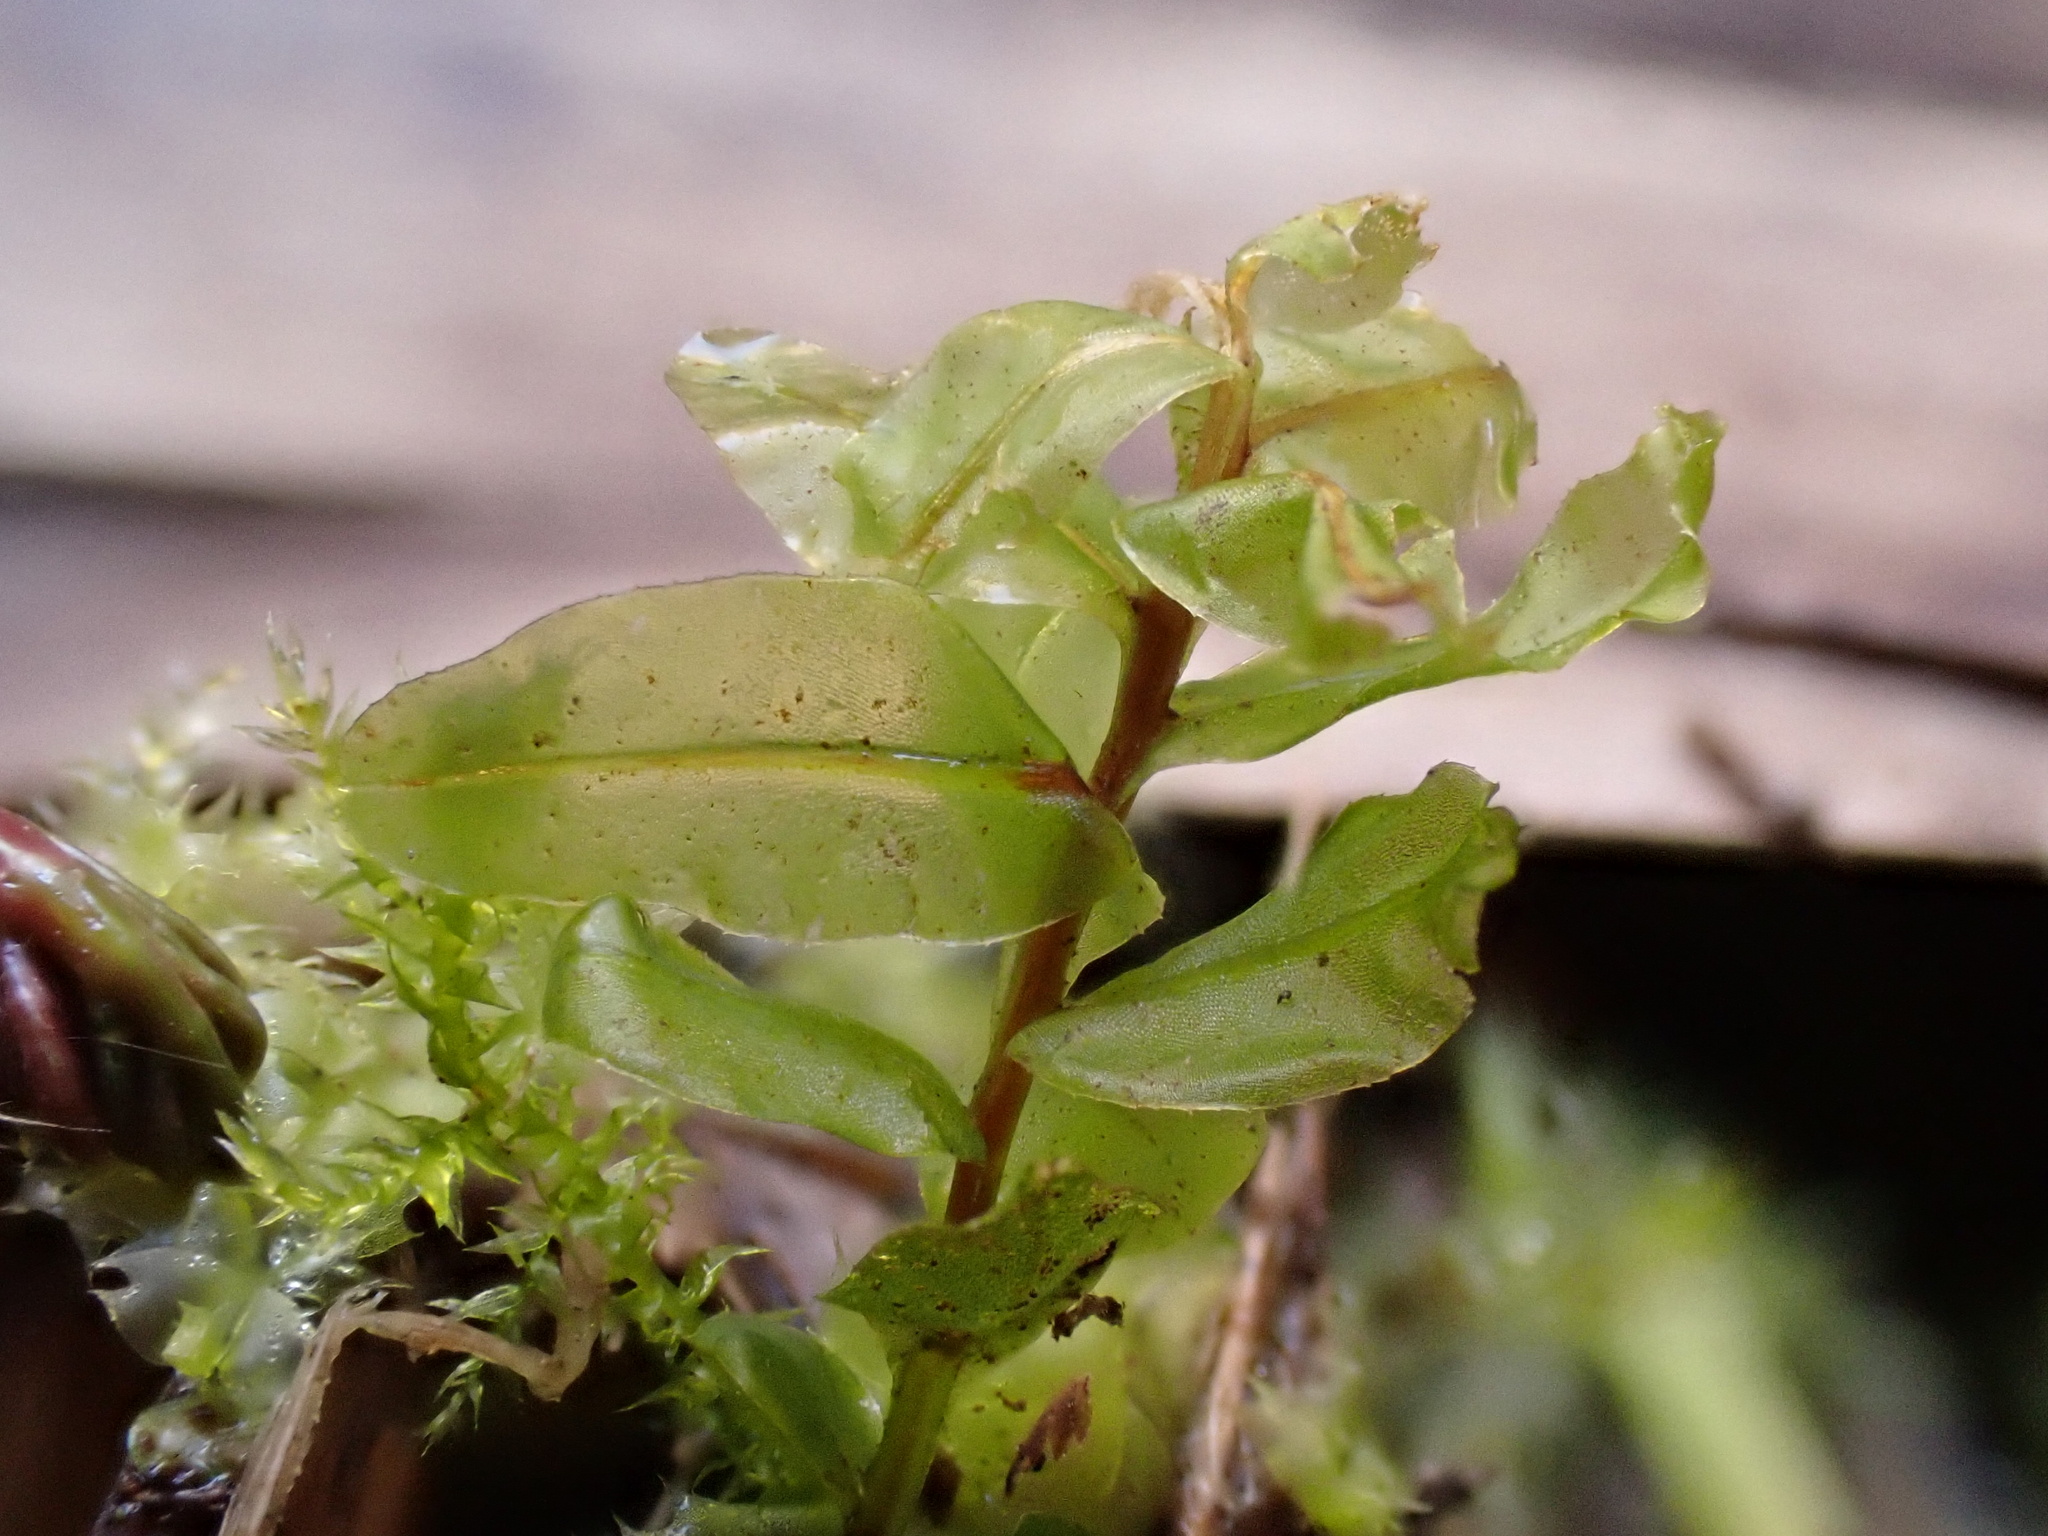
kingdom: Plantae
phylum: Bryophyta
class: Bryopsida
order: Bryales
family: Mniaceae
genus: Plagiomnium
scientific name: Plagiomnium undulatum
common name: Hart's-tongue thyme-moss
